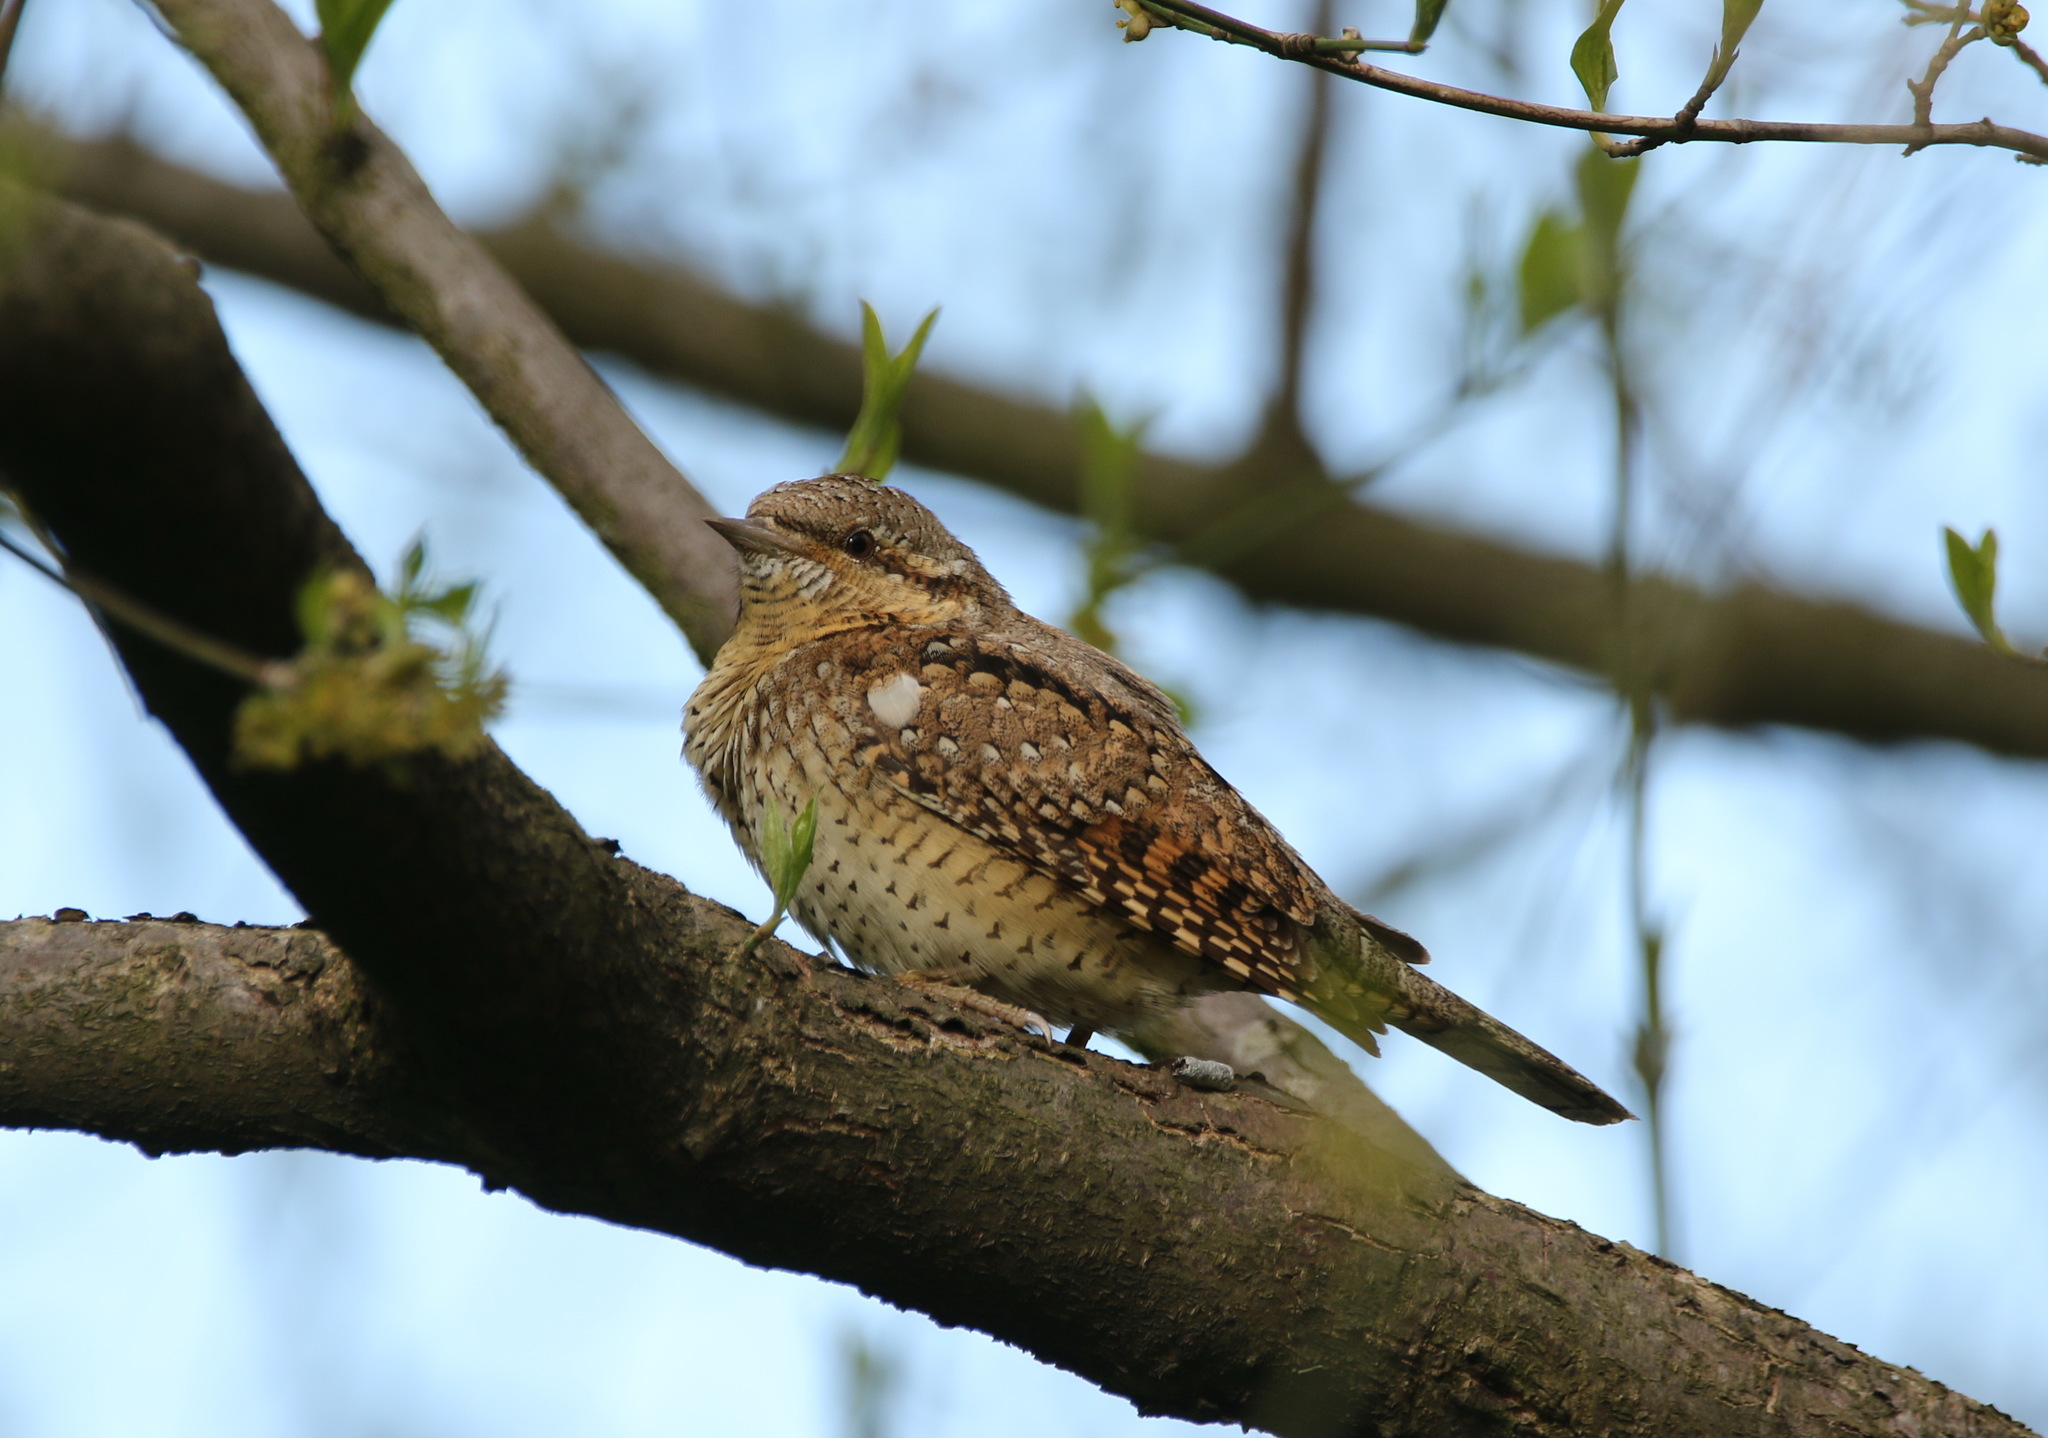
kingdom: Animalia
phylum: Chordata
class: Aves
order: Piciformes
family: Picidae
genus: Jynx
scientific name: Jynx torquilla
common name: Eurasian wryneck
